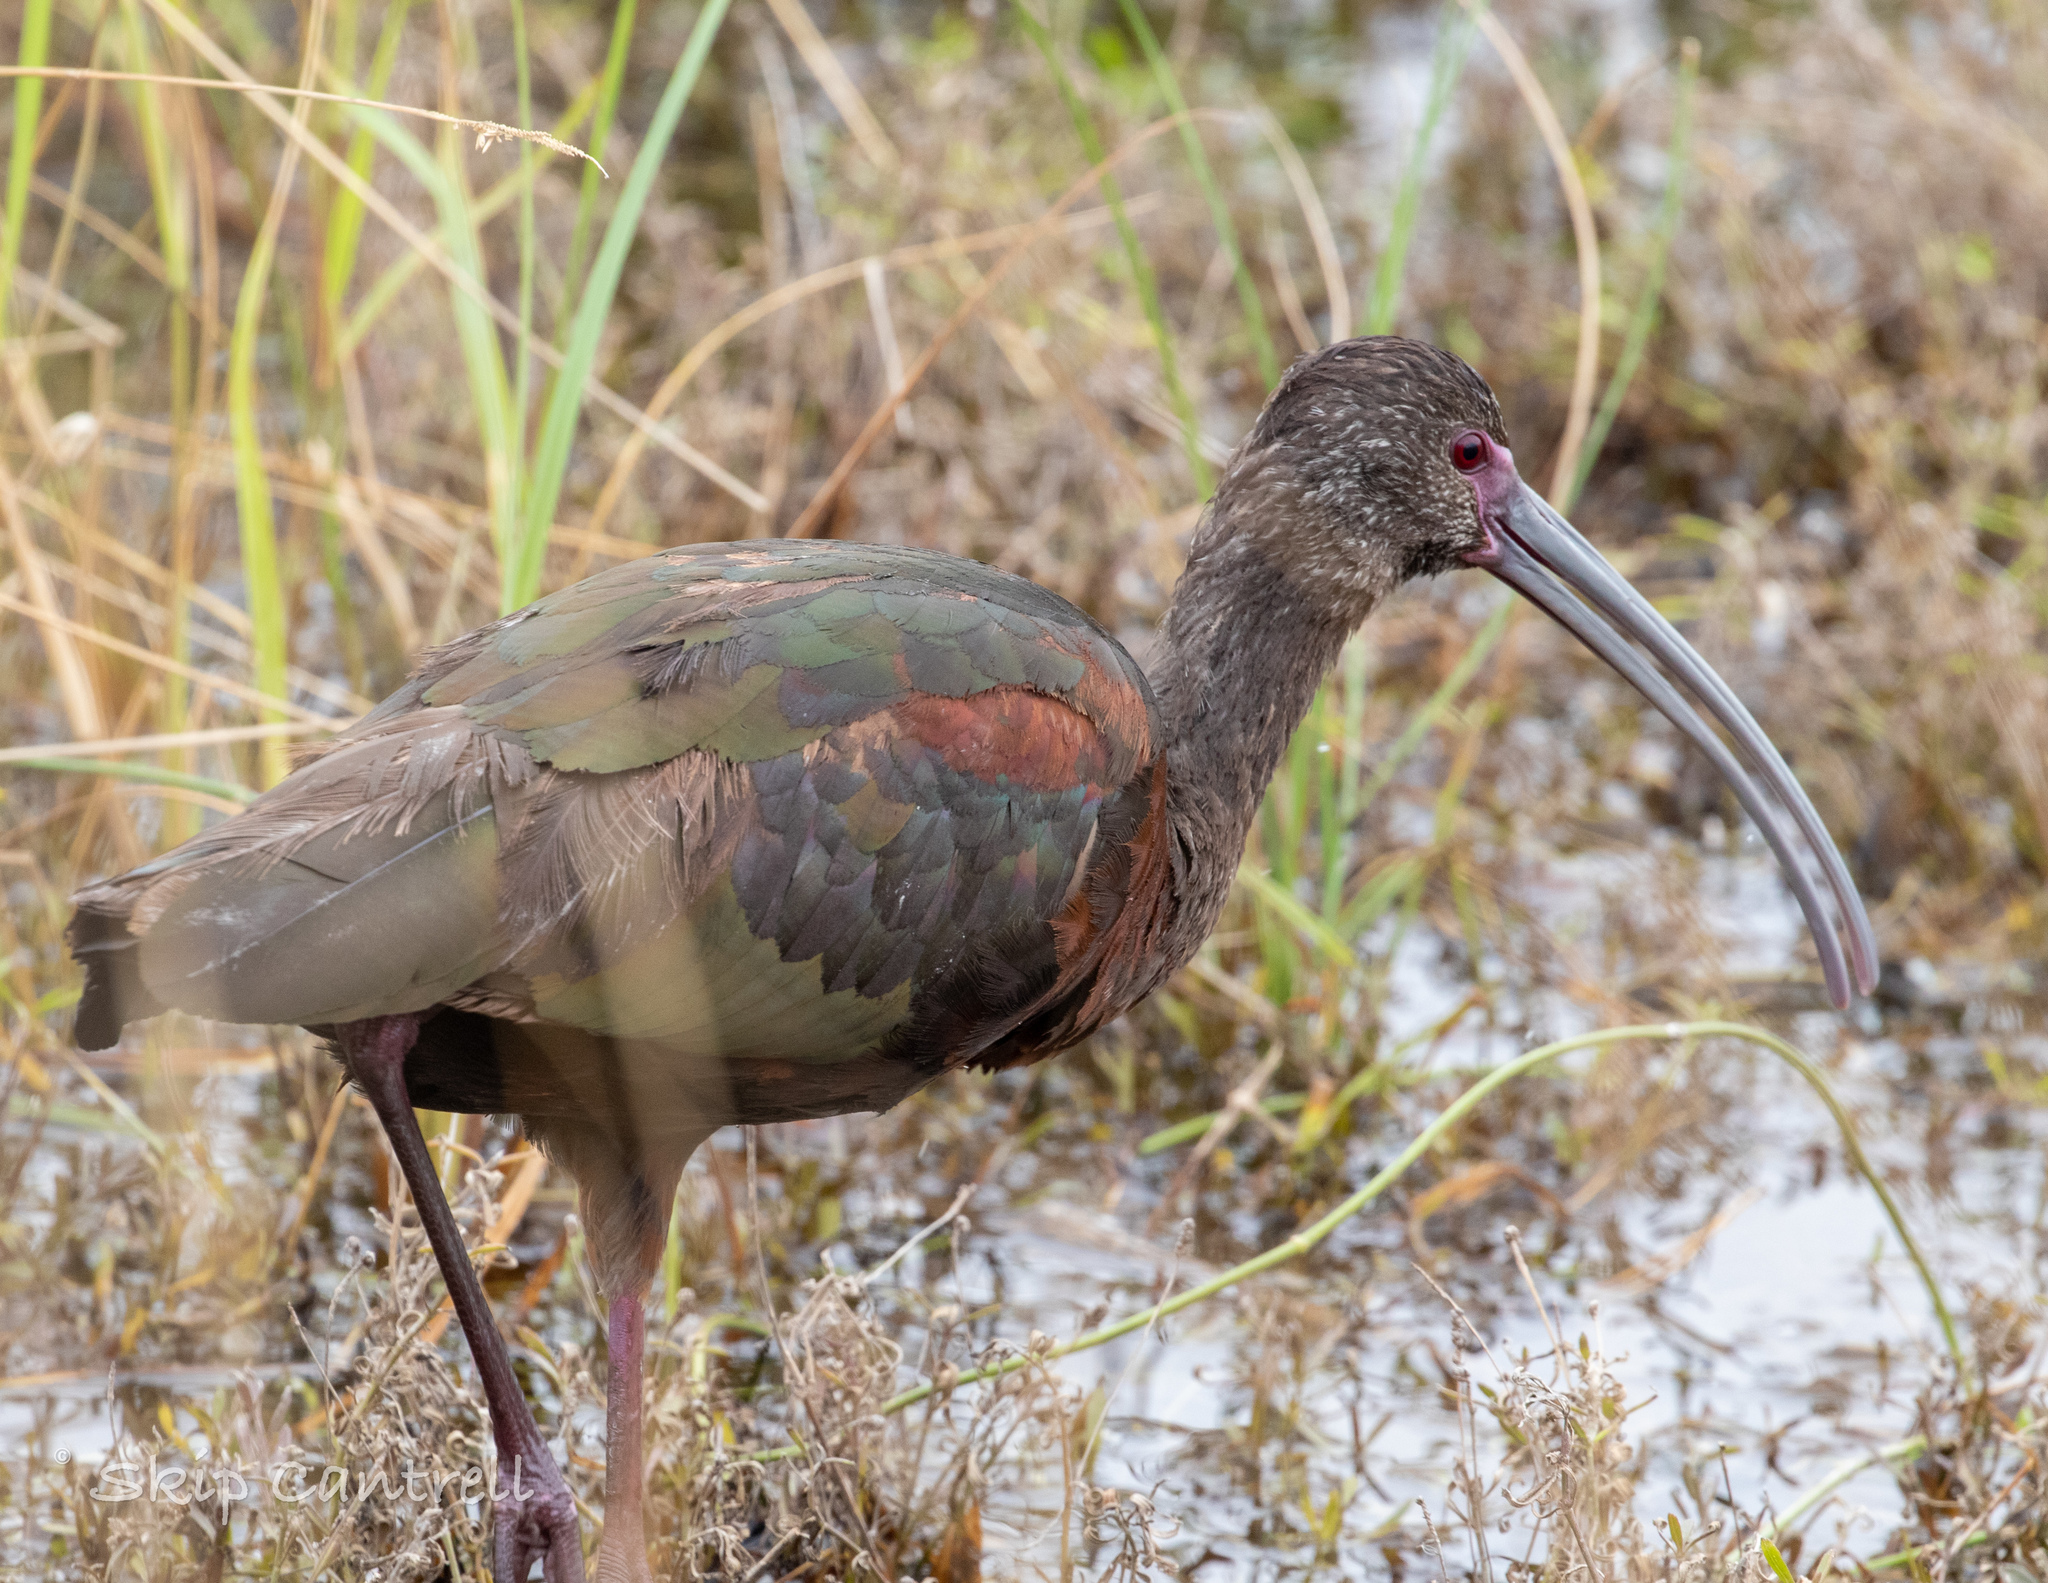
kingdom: Animalia
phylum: Chordata
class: Aves
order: Pelecaniformes
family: Threskiornithidae
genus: Plegadis
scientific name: Plegadis chihi
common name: White-faced ibis
